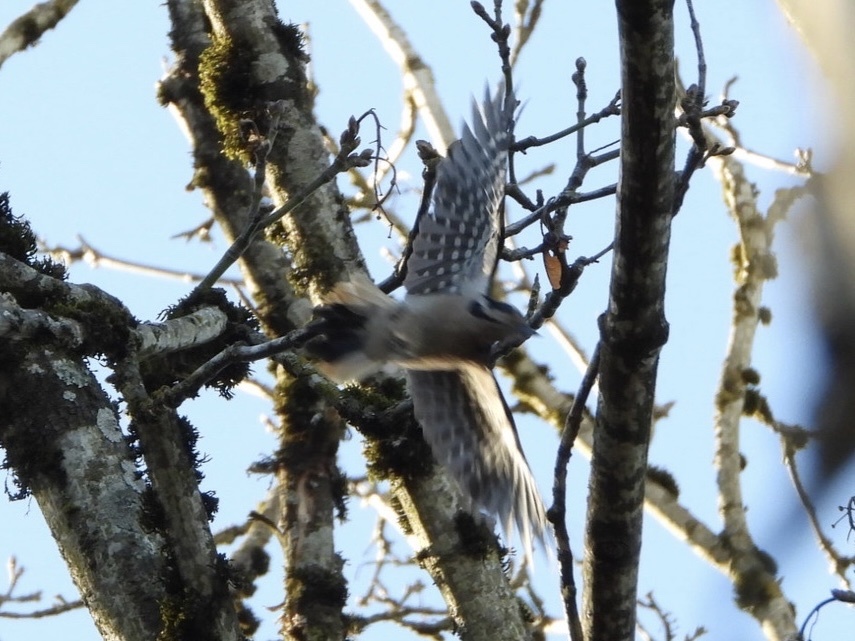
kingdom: Animalia
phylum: Chordata
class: Aves
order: Piciformes
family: Picidae
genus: Leuconotopicus
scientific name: Leuconotopicus villosus
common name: Hairy woodpecker
